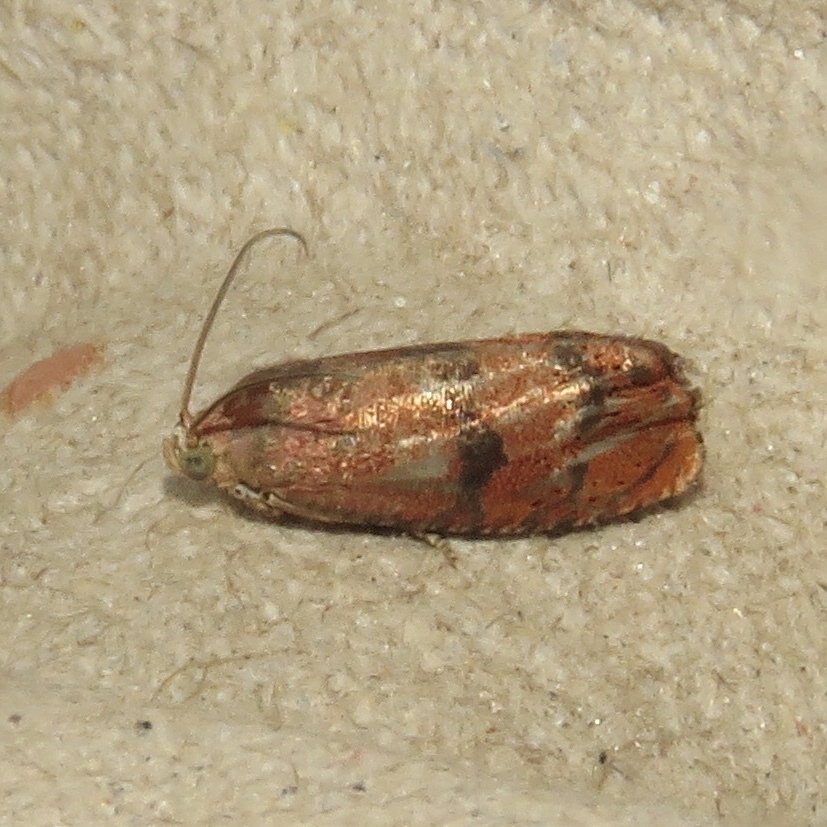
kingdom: Animalia
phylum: Arthropoda
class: Insecta
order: Lepidoptera
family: Tortricidae
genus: Cydia
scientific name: Cydia latiferreana
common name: Filbertworm moth
